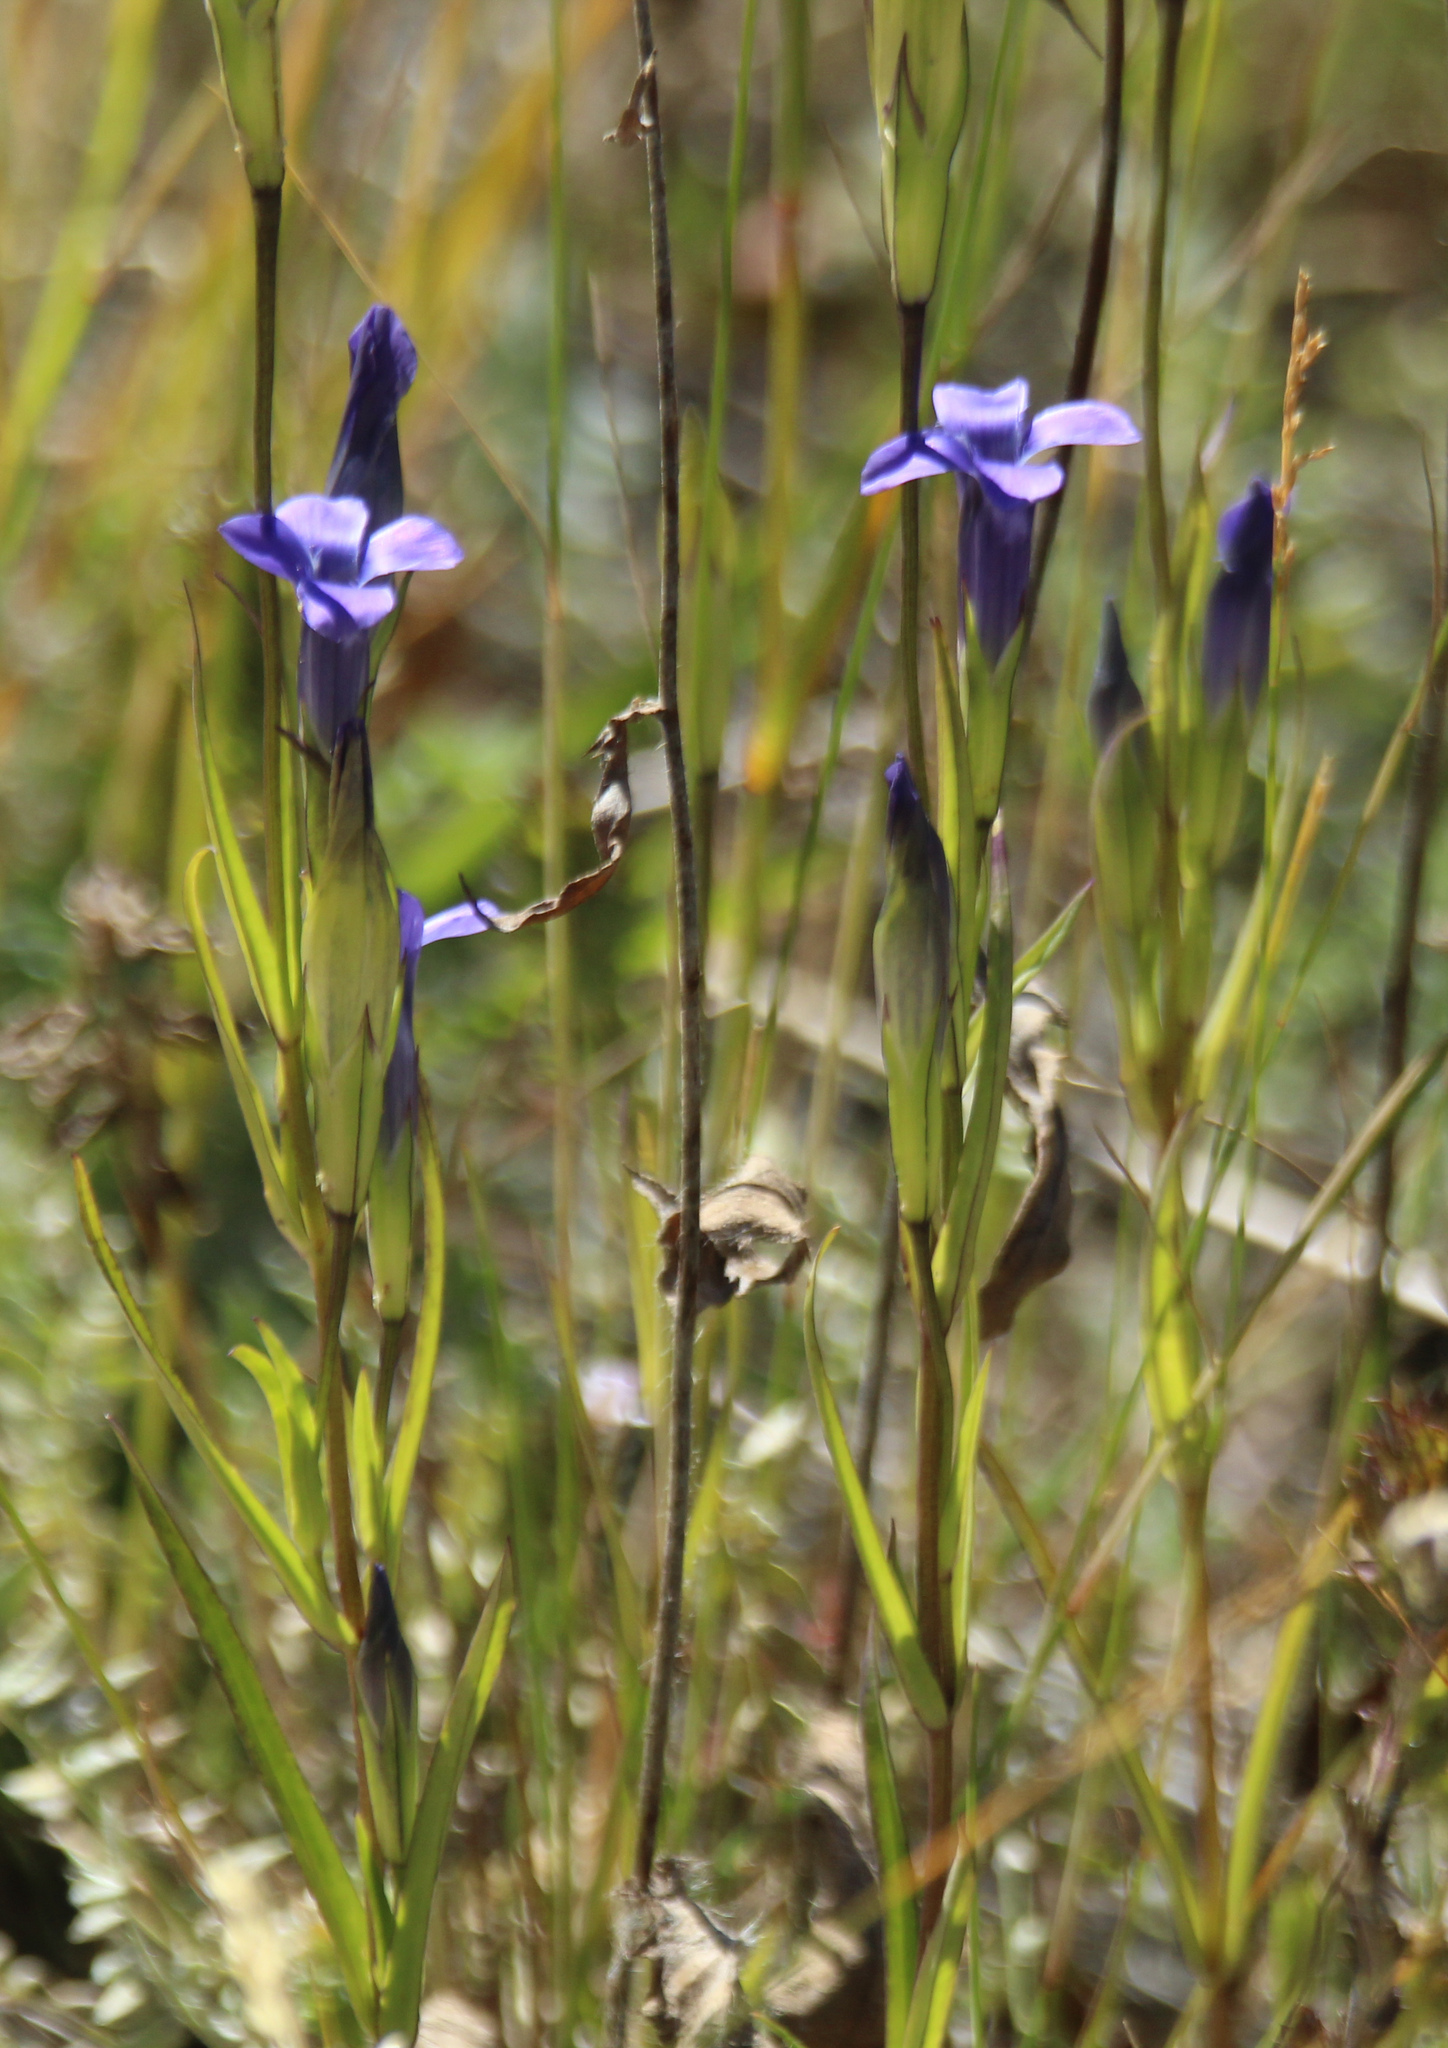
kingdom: Plantae
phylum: Tracheophyta
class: Magnoliopsida
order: Gentianales
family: Gentianaceae
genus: Gentianopsis
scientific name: Gentianopsis barbata
